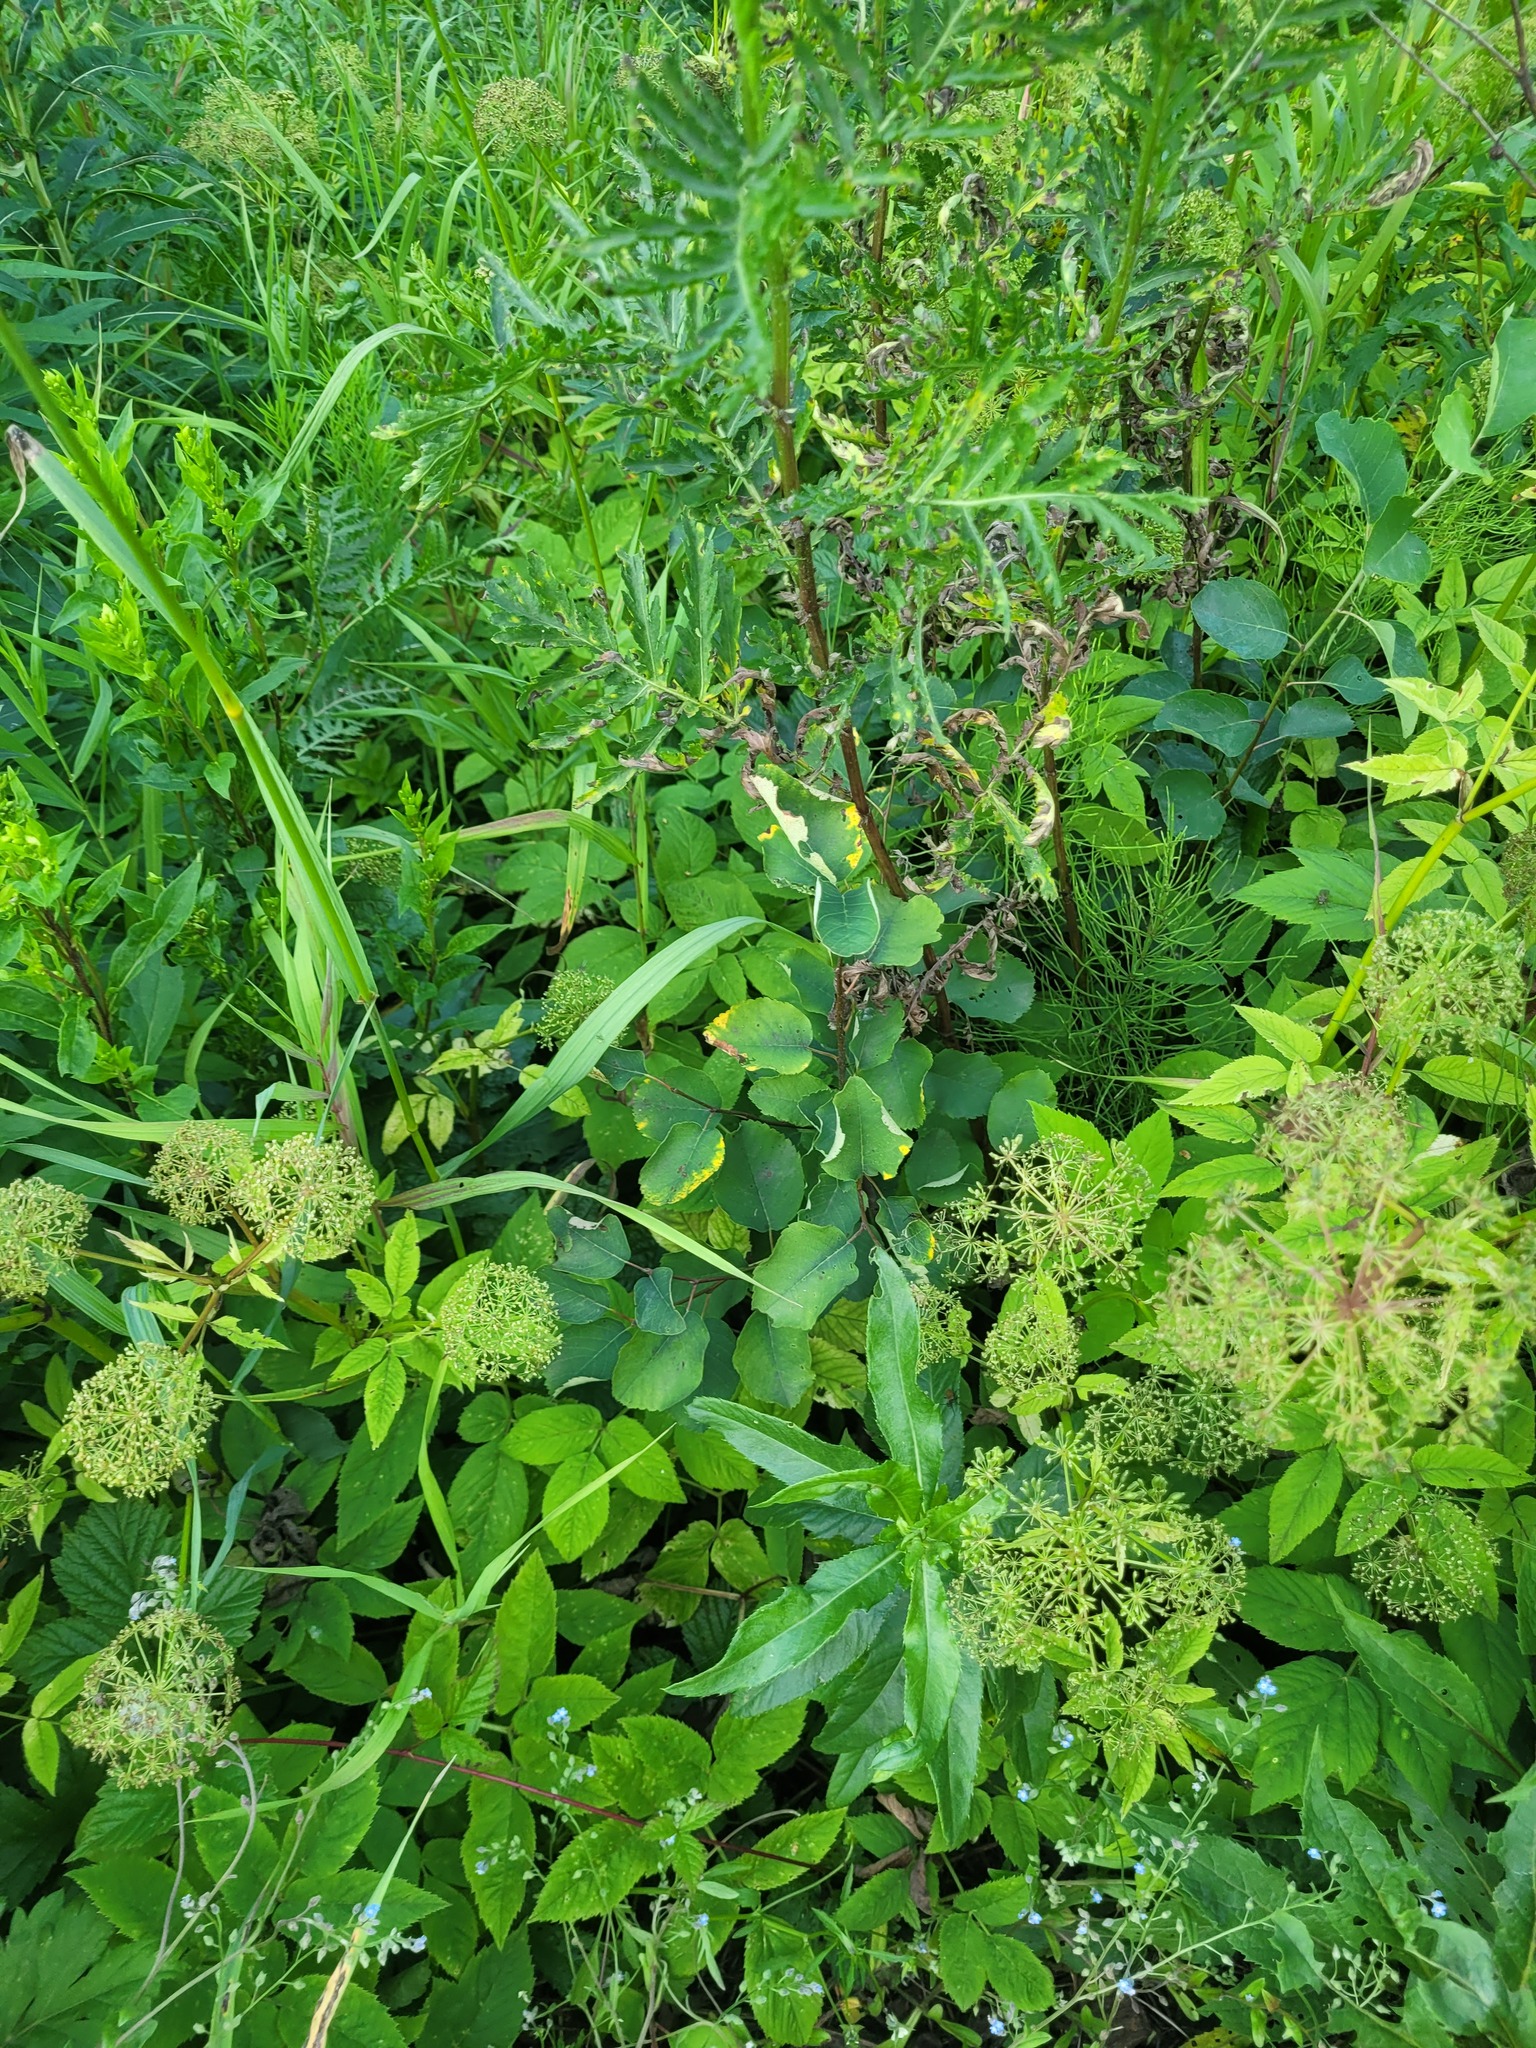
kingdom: Plantae
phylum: Tracheophyta
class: Magnoliopsida
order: Rosales
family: Rosaceae
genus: Amelanchier
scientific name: Amelanchier
